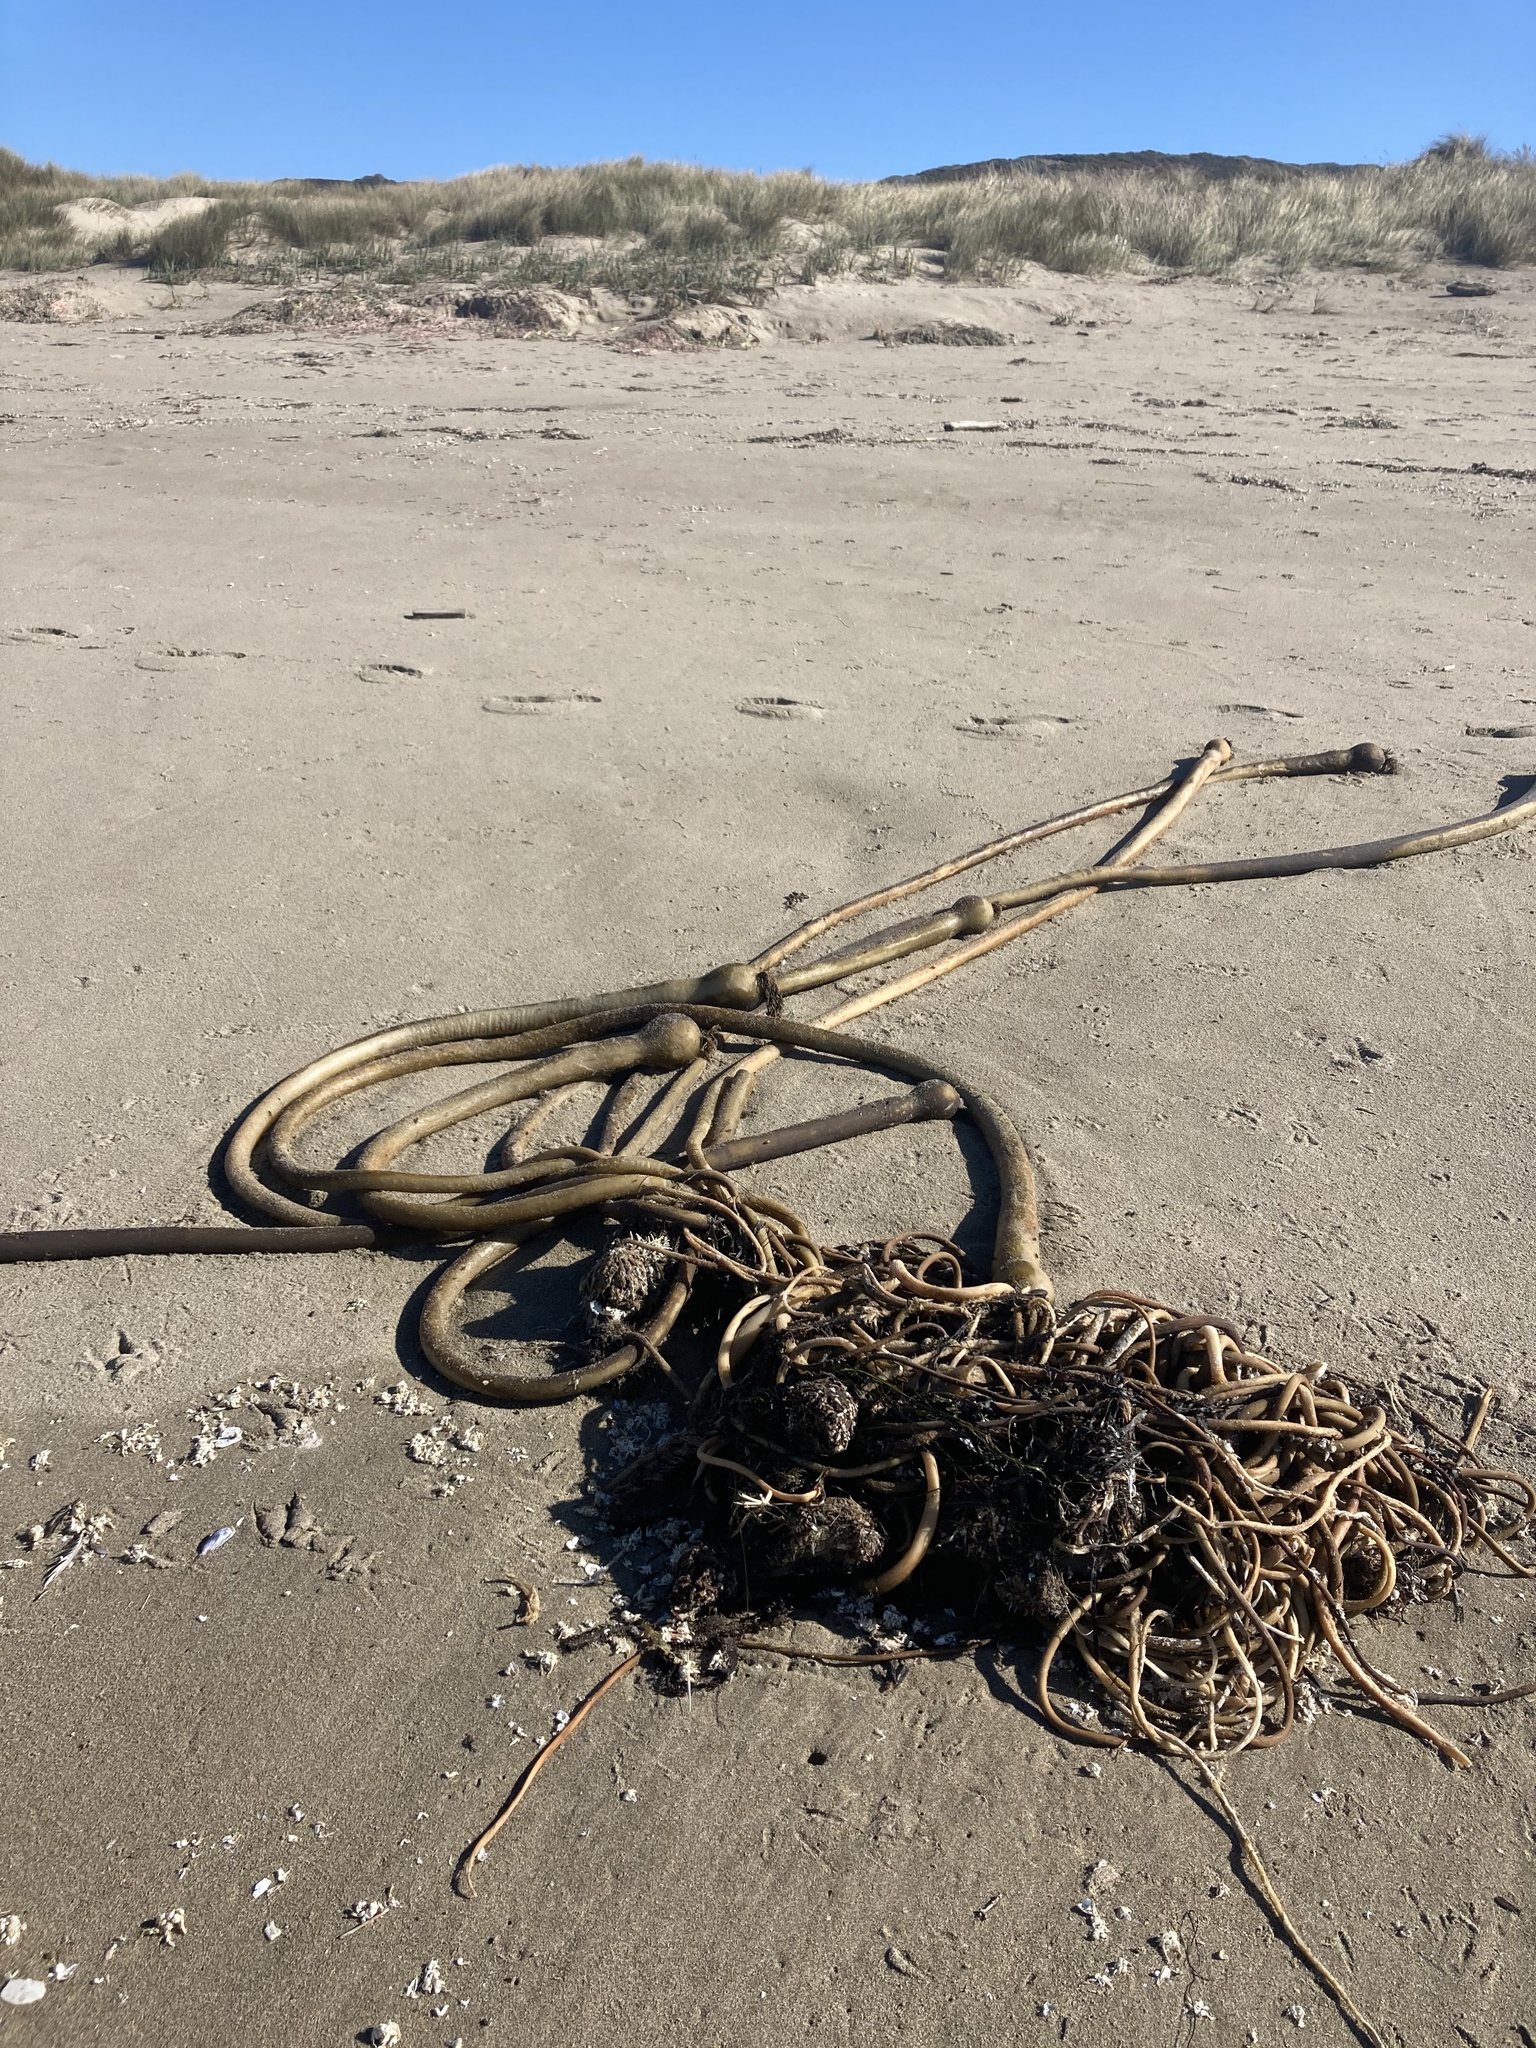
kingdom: Chromista
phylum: Ochrophyta
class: Phaeophyceae
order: Laminariales
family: Laminariaceae
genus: Nereocystis
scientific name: Nereocystis luetkeana
